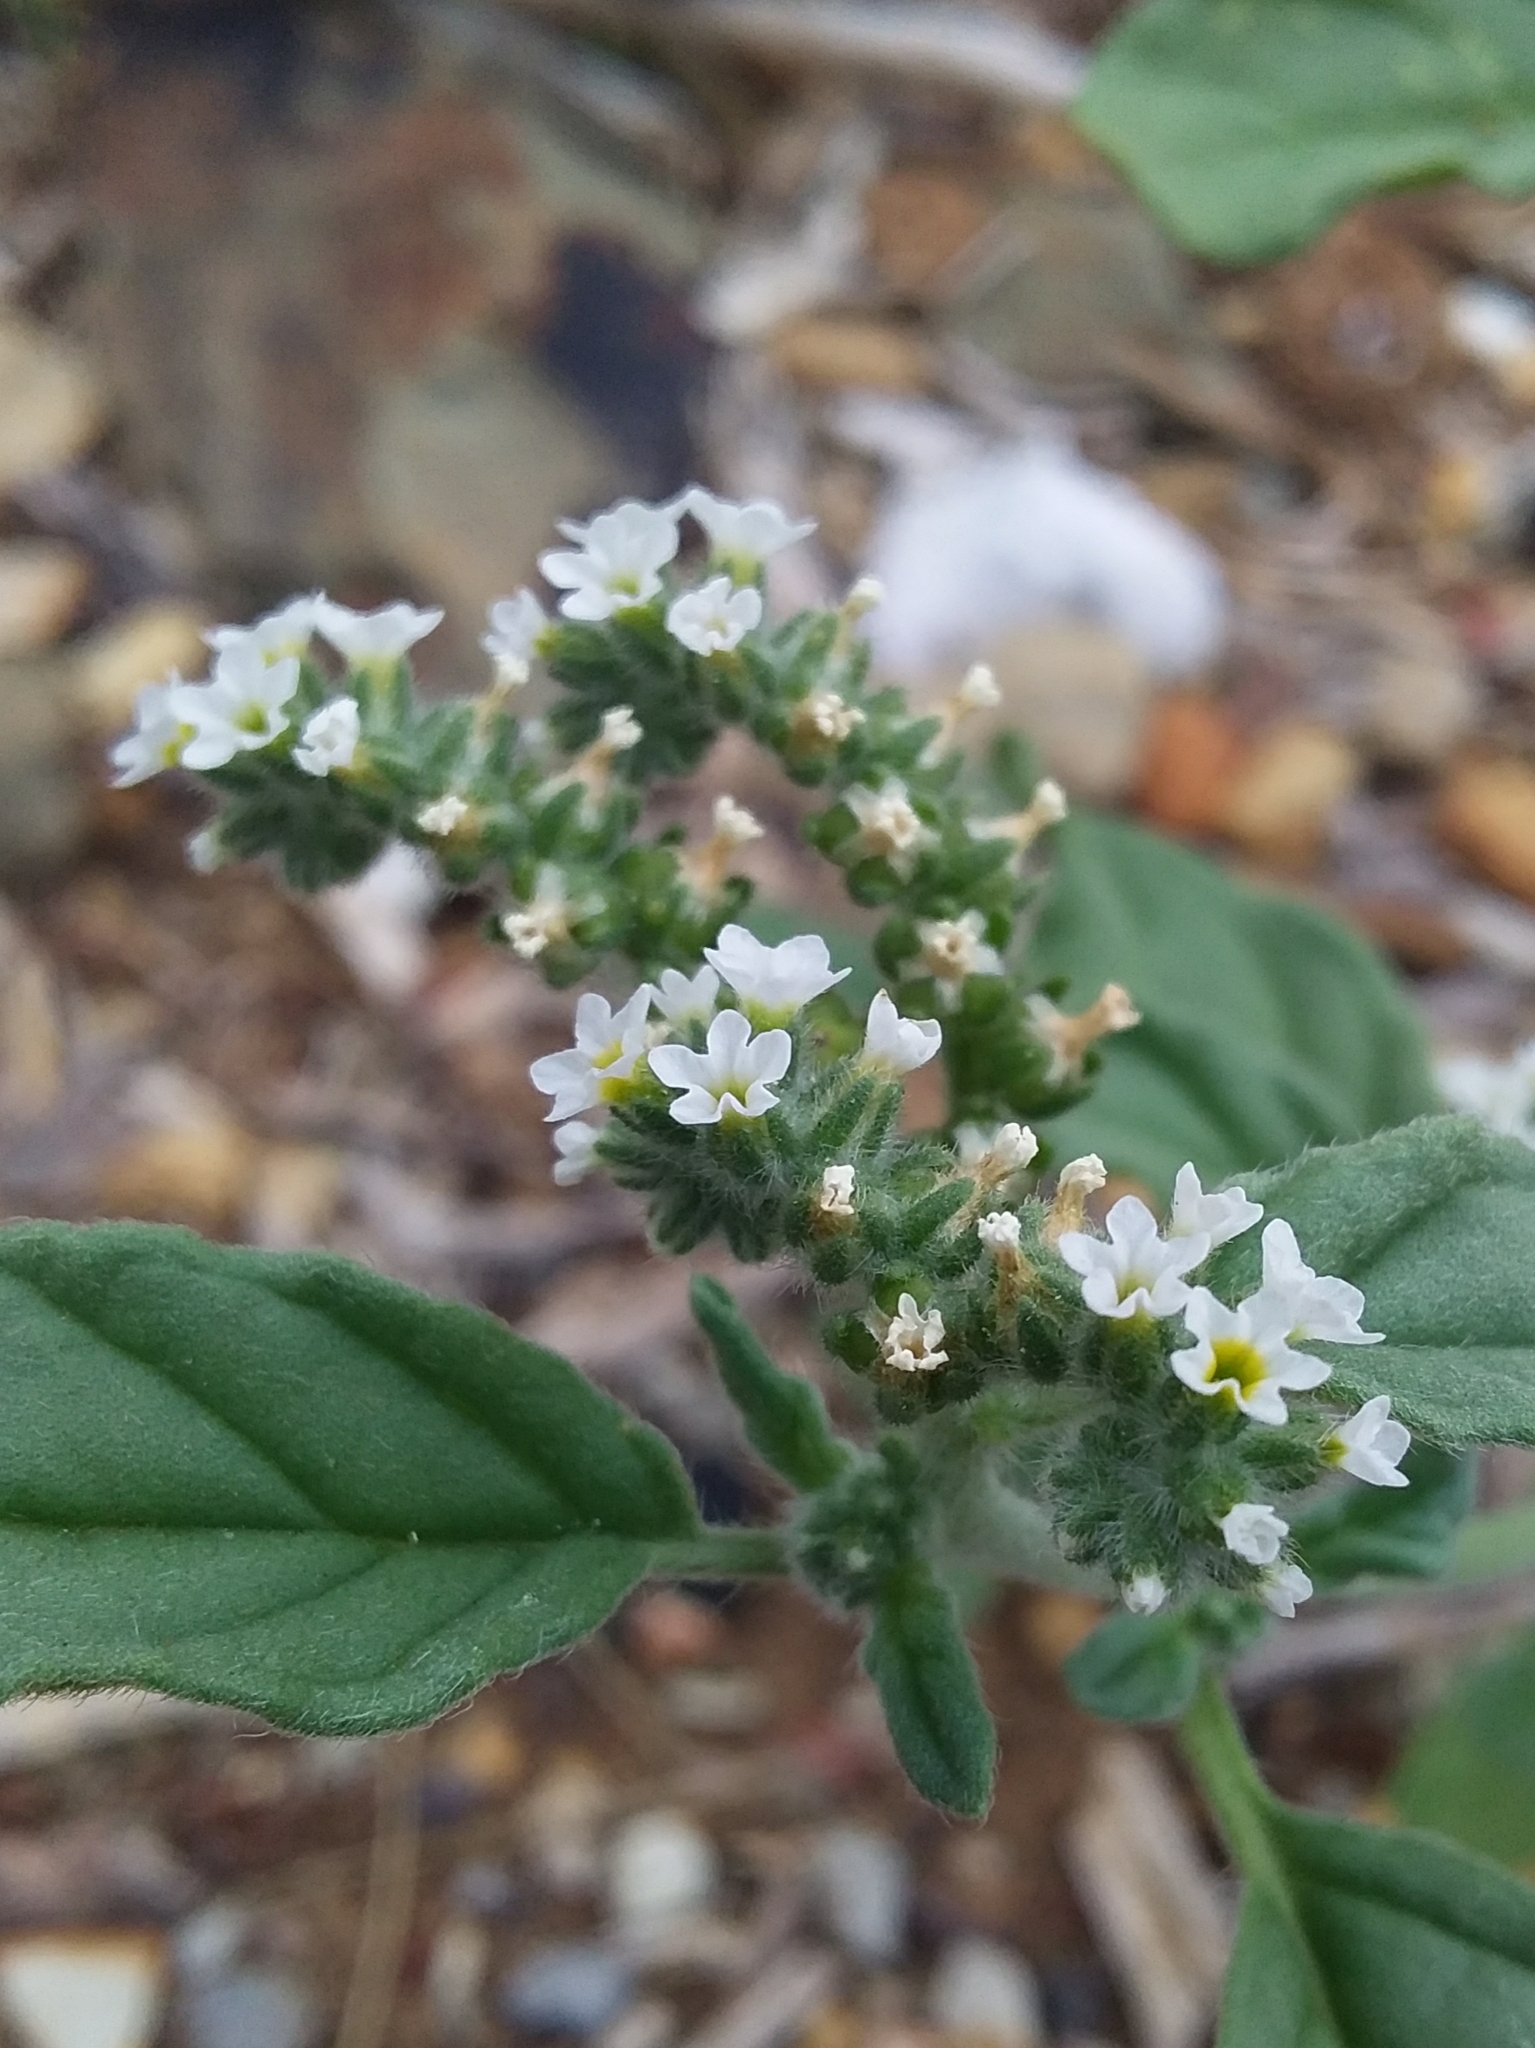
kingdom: Plantae
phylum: Tracheophyta
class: Magnoliopsida
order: Boraginales
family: Heliotropiaceae
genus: Heliotropium
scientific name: Heliotropium europaeum
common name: European heliotrope
